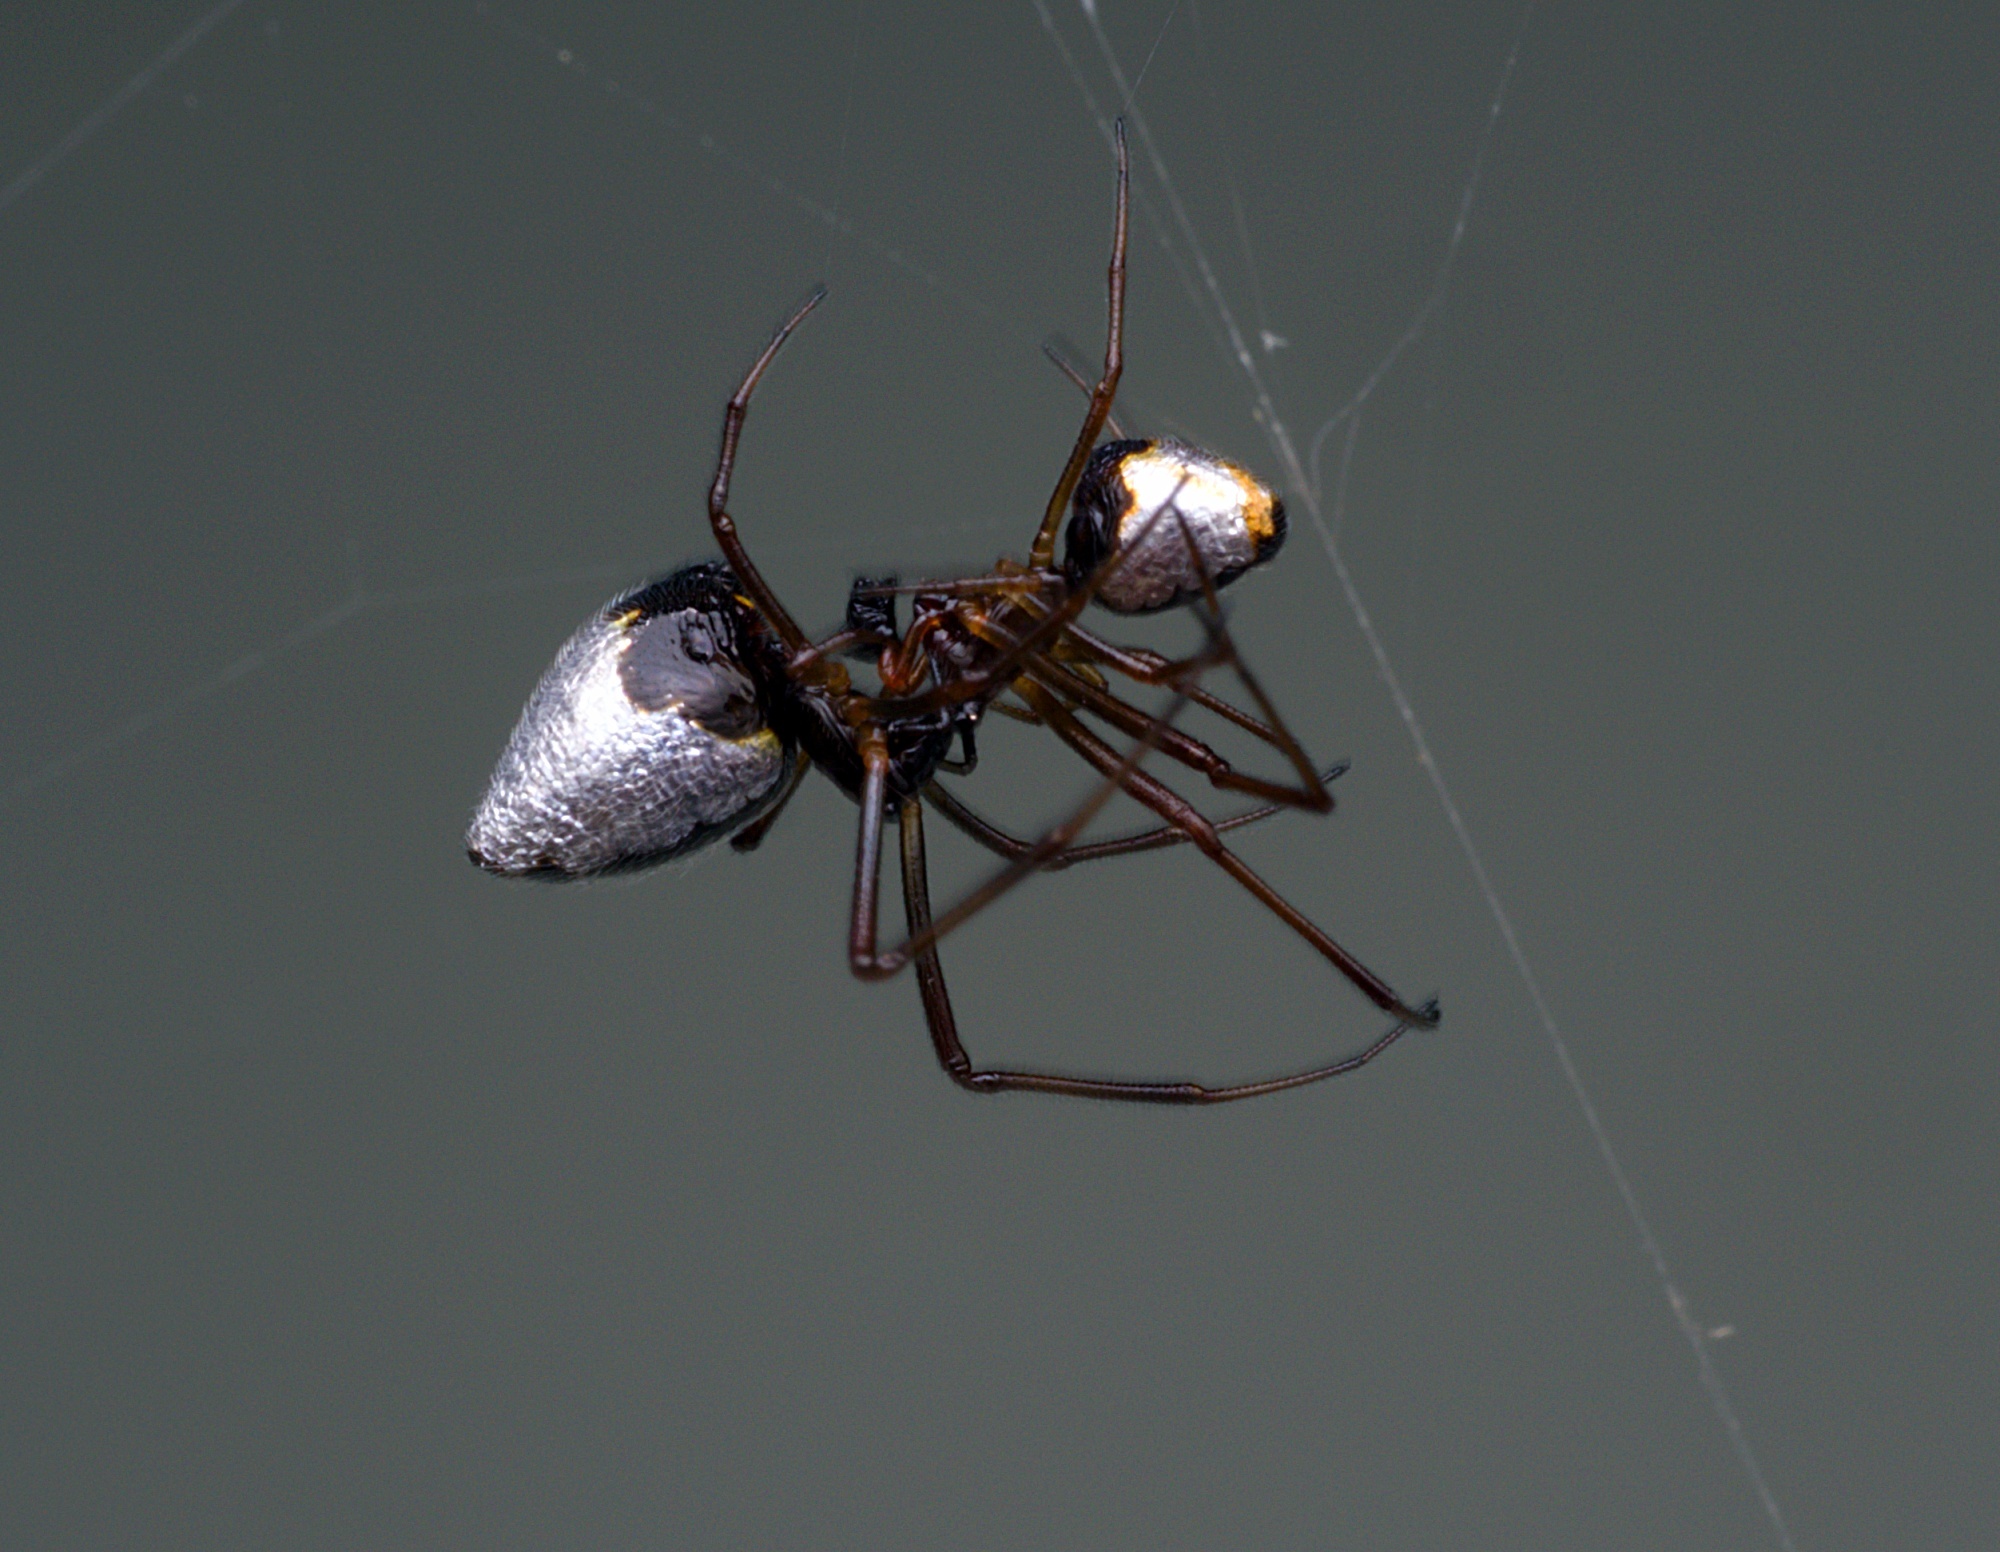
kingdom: Animalia
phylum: Arthropoda
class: Arachnida
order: Araneae
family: Theridiidae
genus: Argyrodes
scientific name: Argyrodes antipodianus
